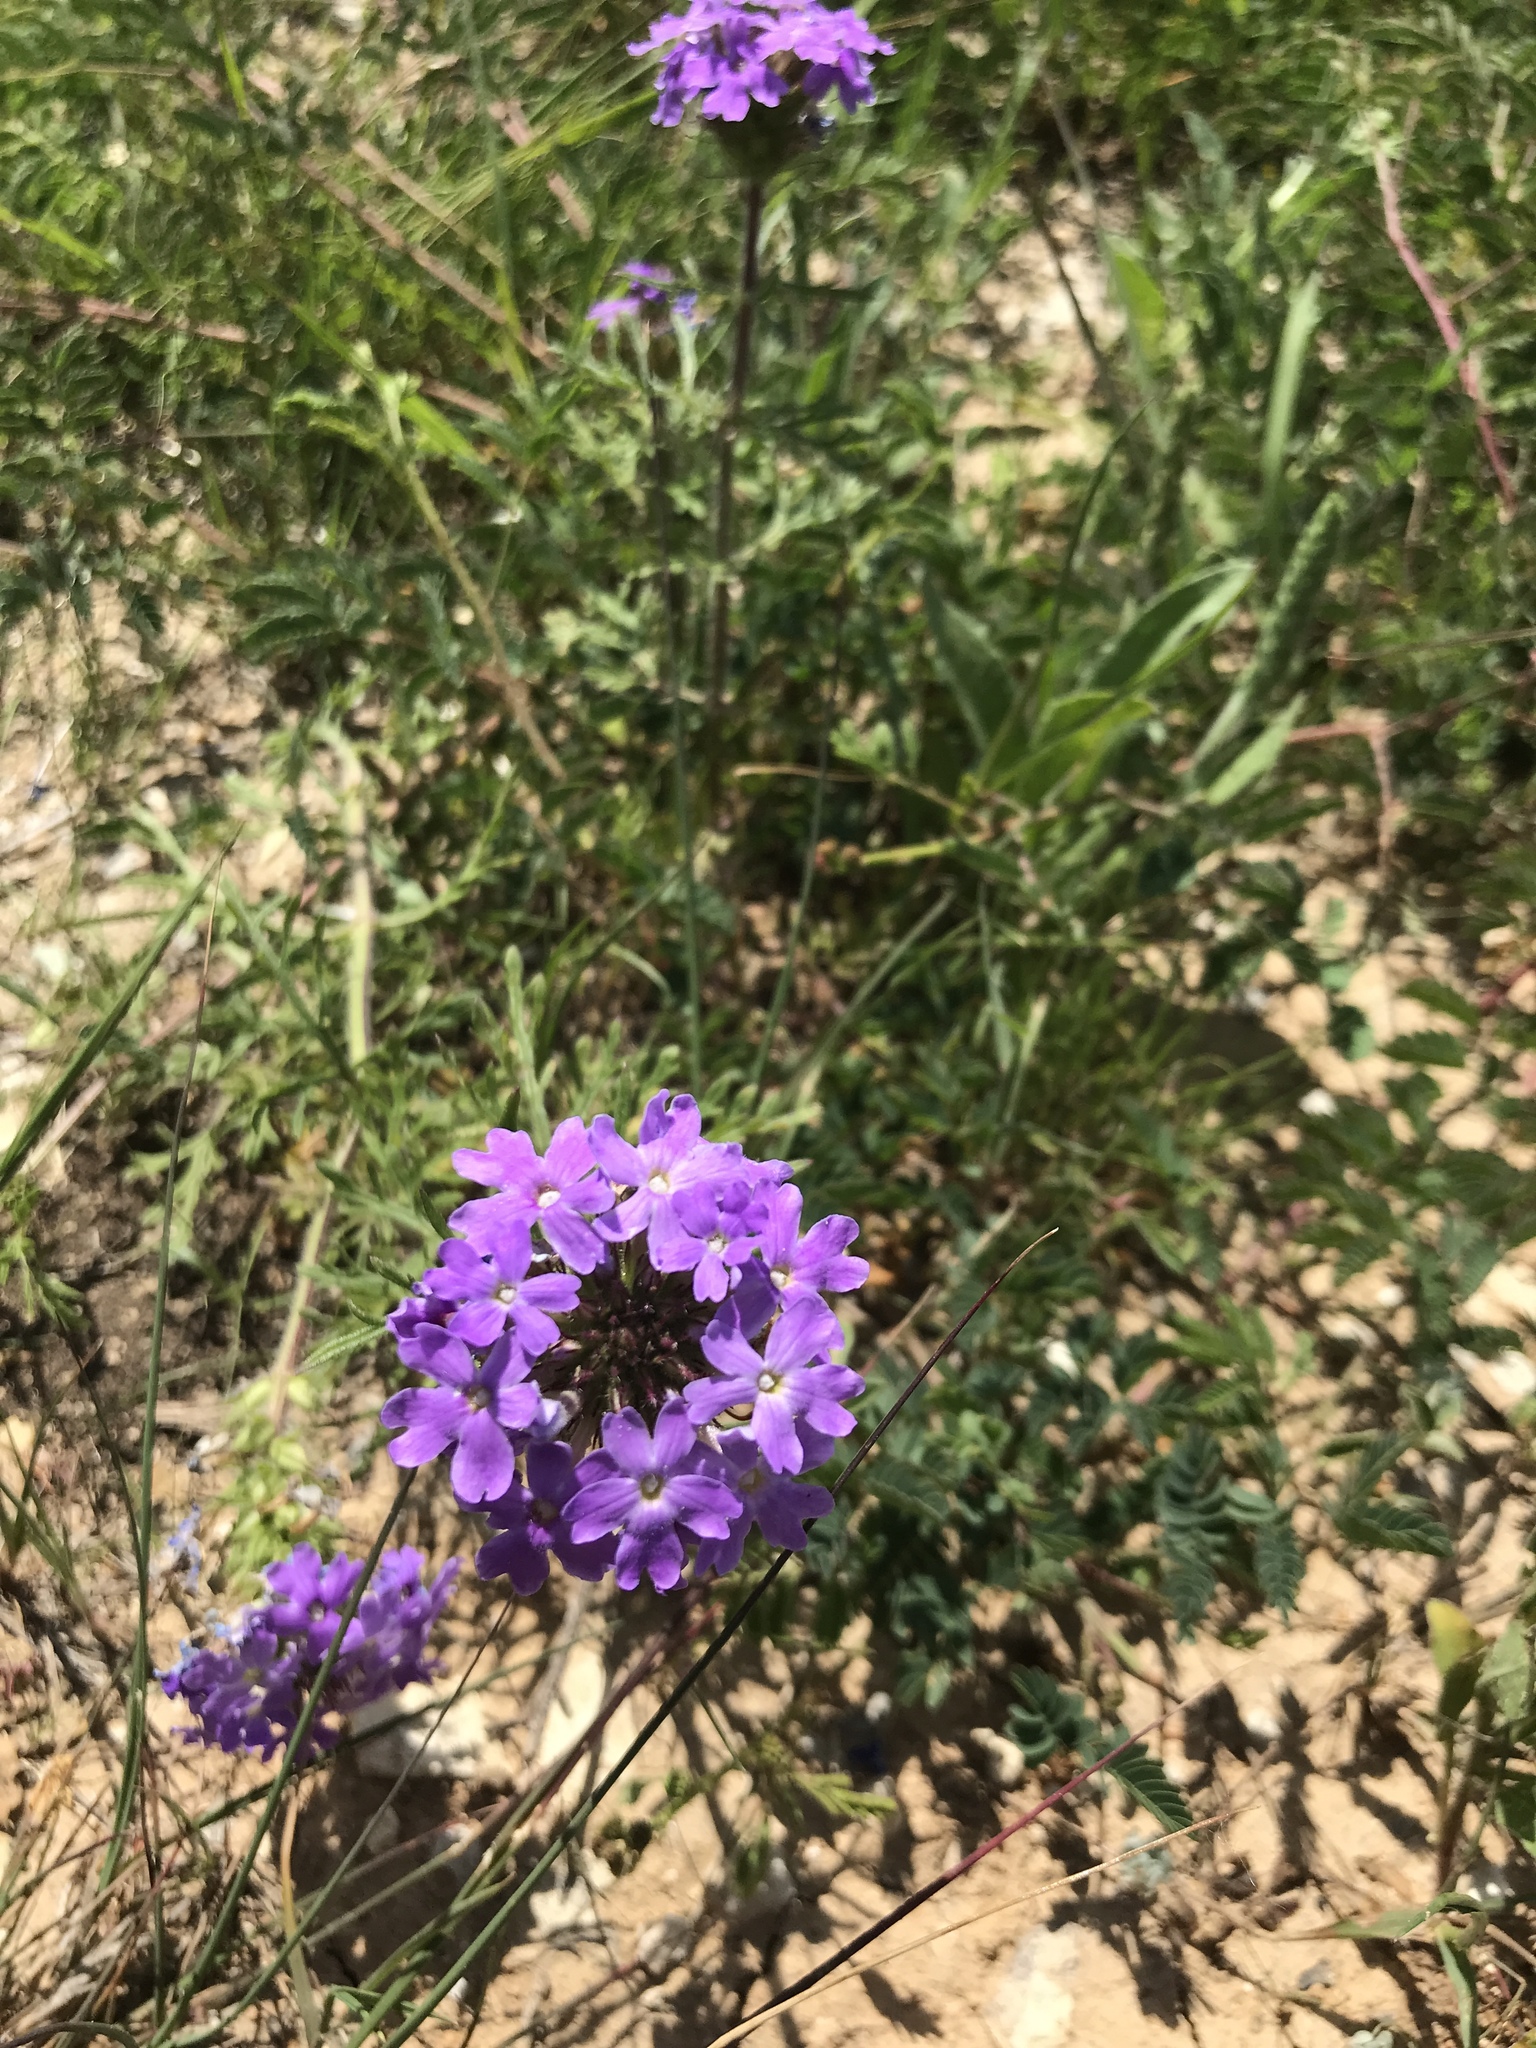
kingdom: Plantae
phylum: Tracheophyta
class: Magnoliopsida
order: Lamiales
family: Verbenaceae
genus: Verbena
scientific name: Verbena bipinnatifida
